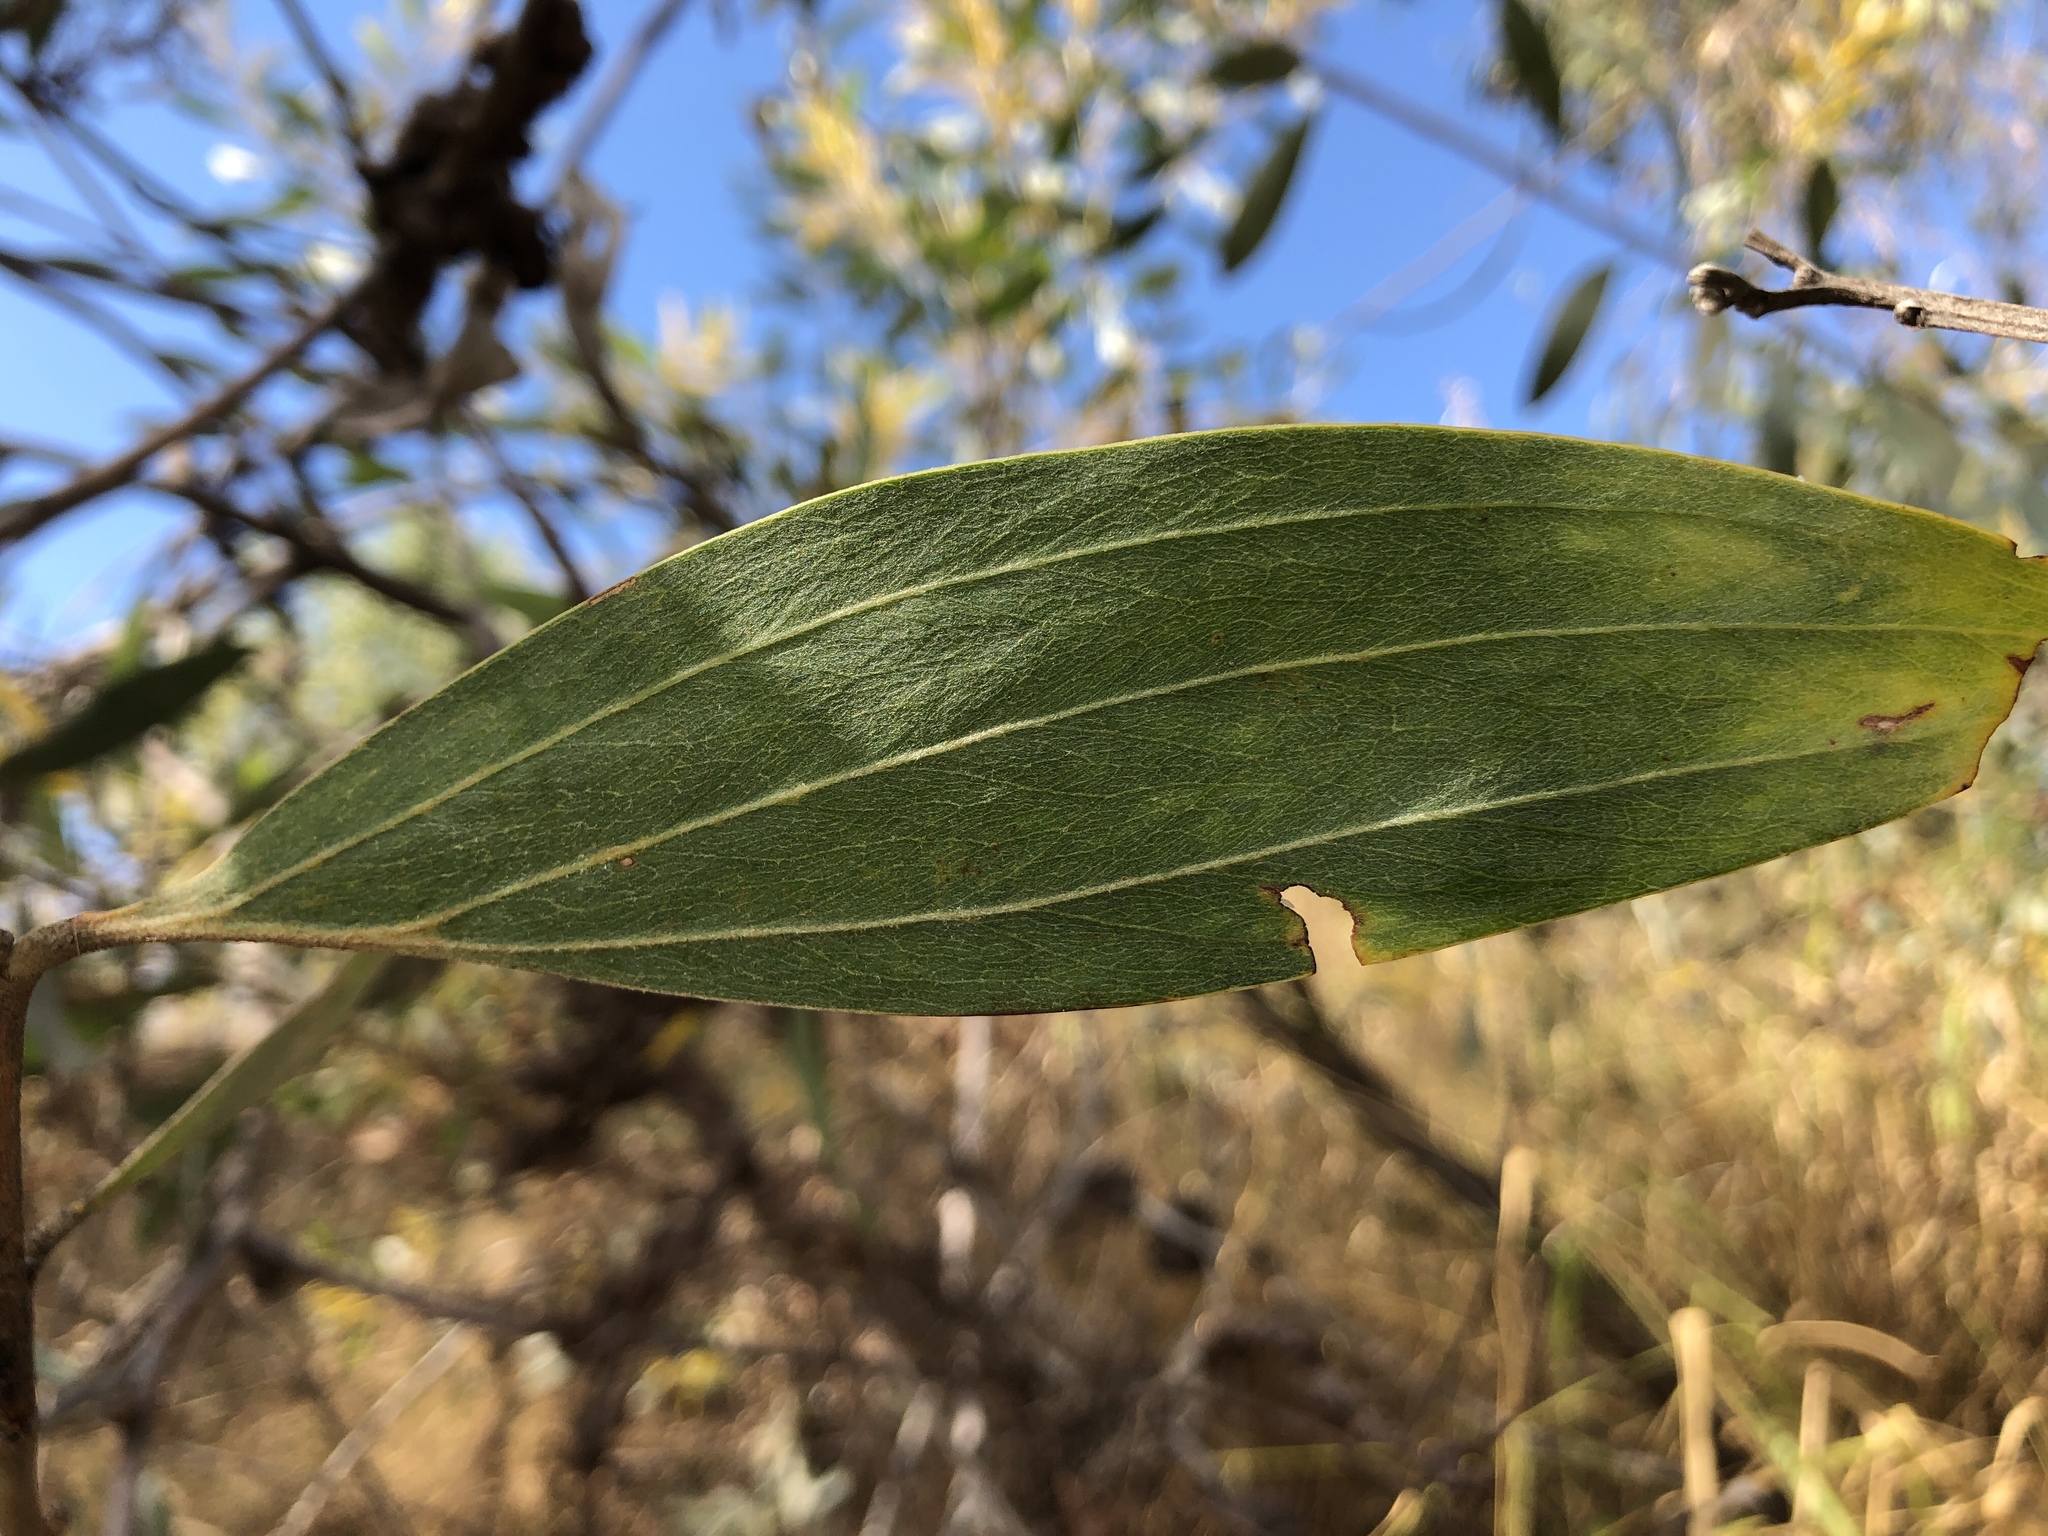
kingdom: Plantae
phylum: Tracheophyta
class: Magnoliopsida
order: Fabales
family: Fabaceae
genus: Acacia
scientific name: Acacia holosericea
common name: Candelabra wattle
